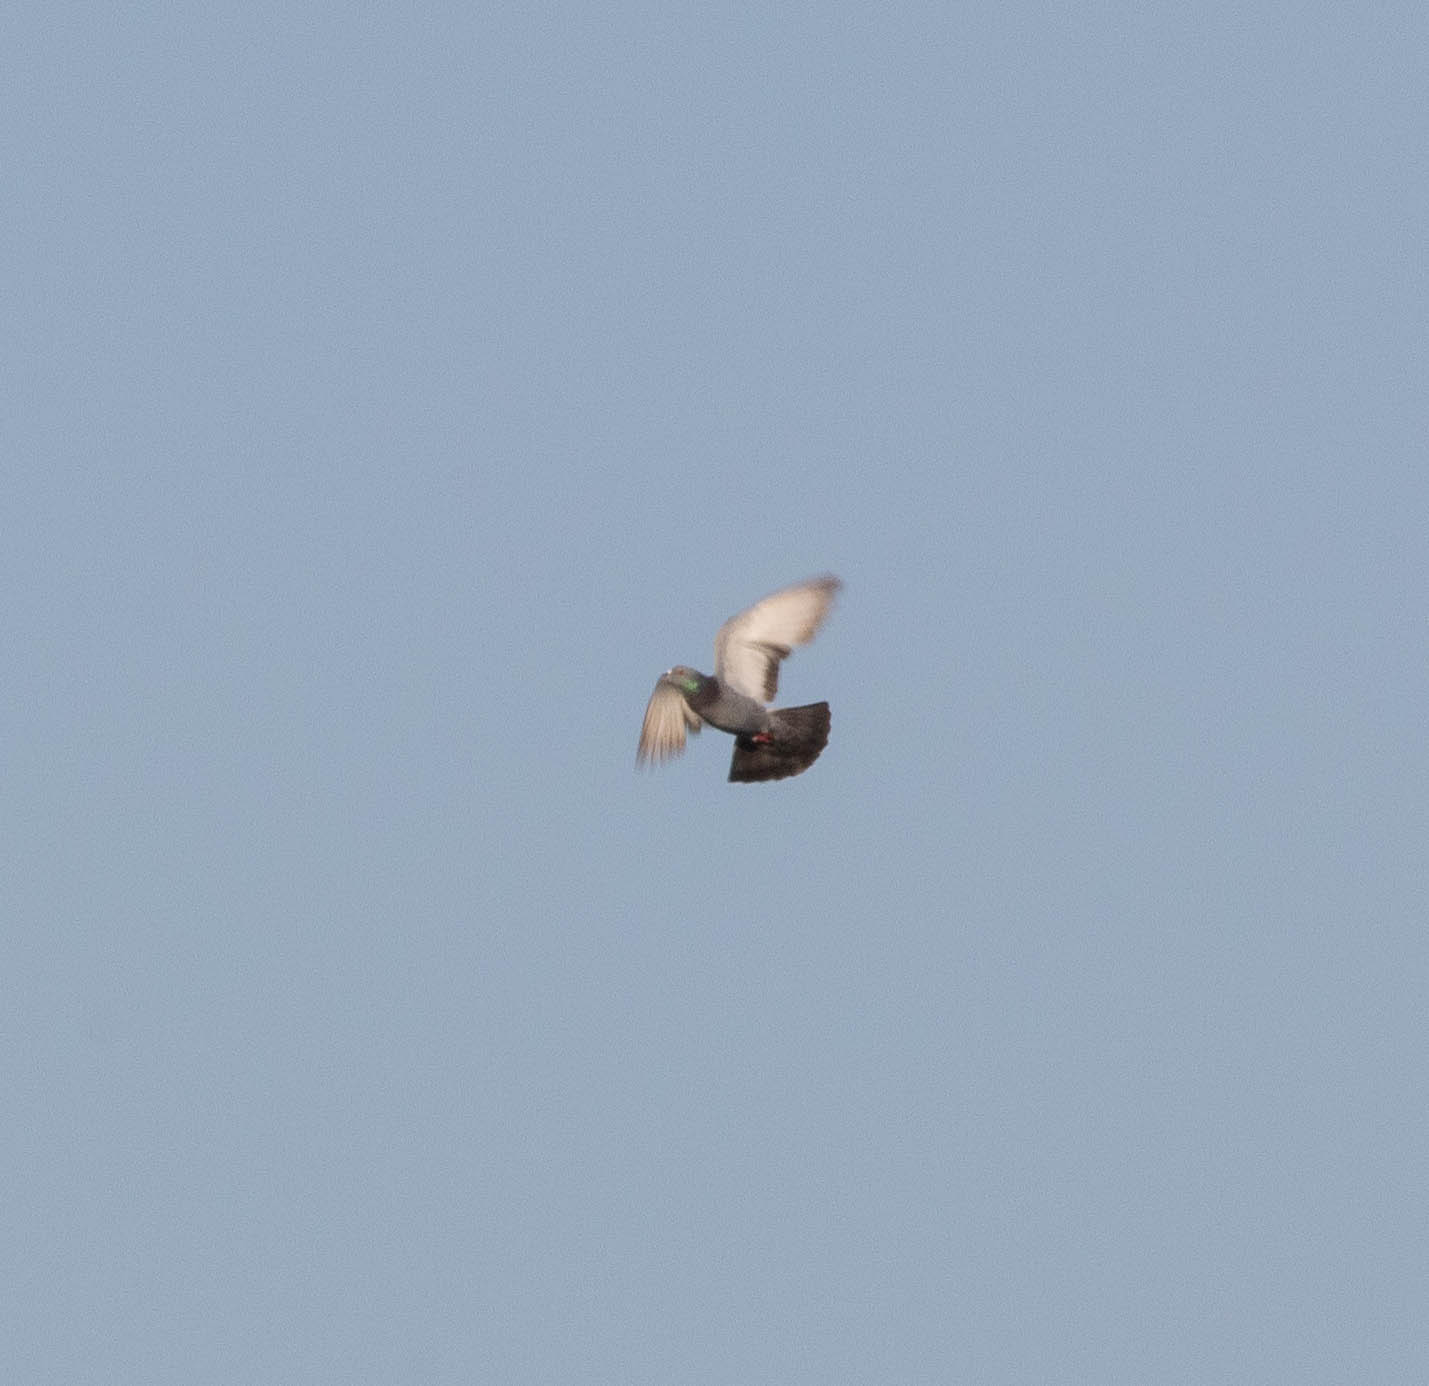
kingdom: Animalia
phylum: Chordata
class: Aves
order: Columbiformes
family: Columbidae
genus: Columba
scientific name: Columba livia
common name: Rock pigeon
